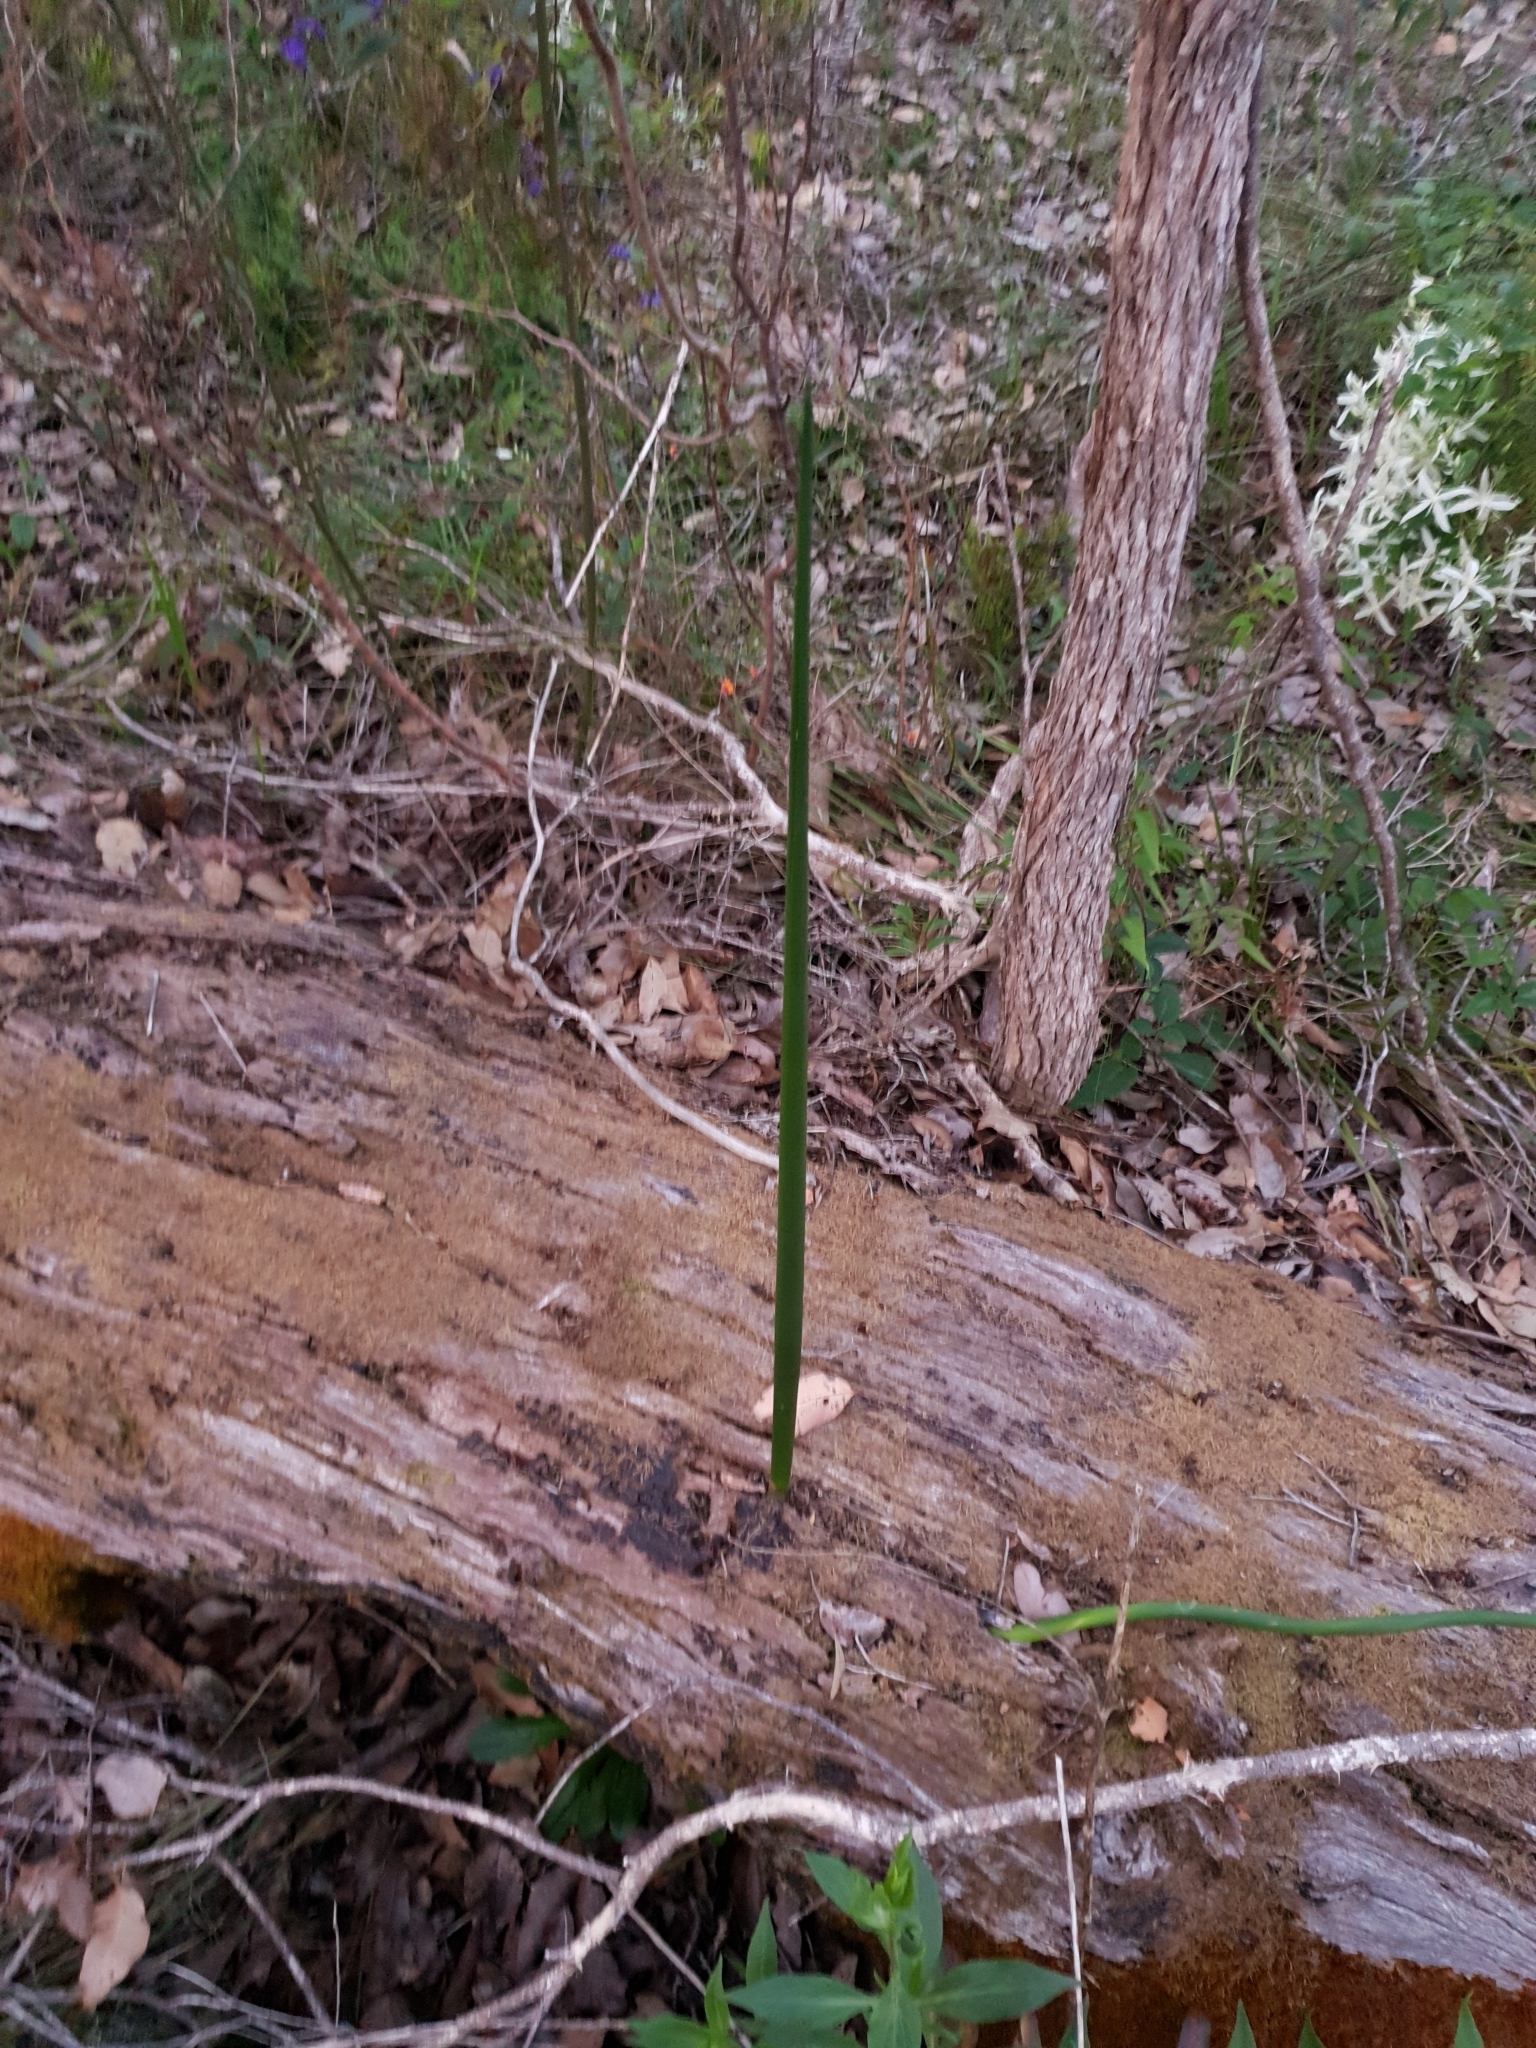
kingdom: Plantae
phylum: Tracheophyta
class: Liliopsida
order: Asparagales
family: Orchidaceae
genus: Prasophyllum
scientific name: Prasophyllum brownii
